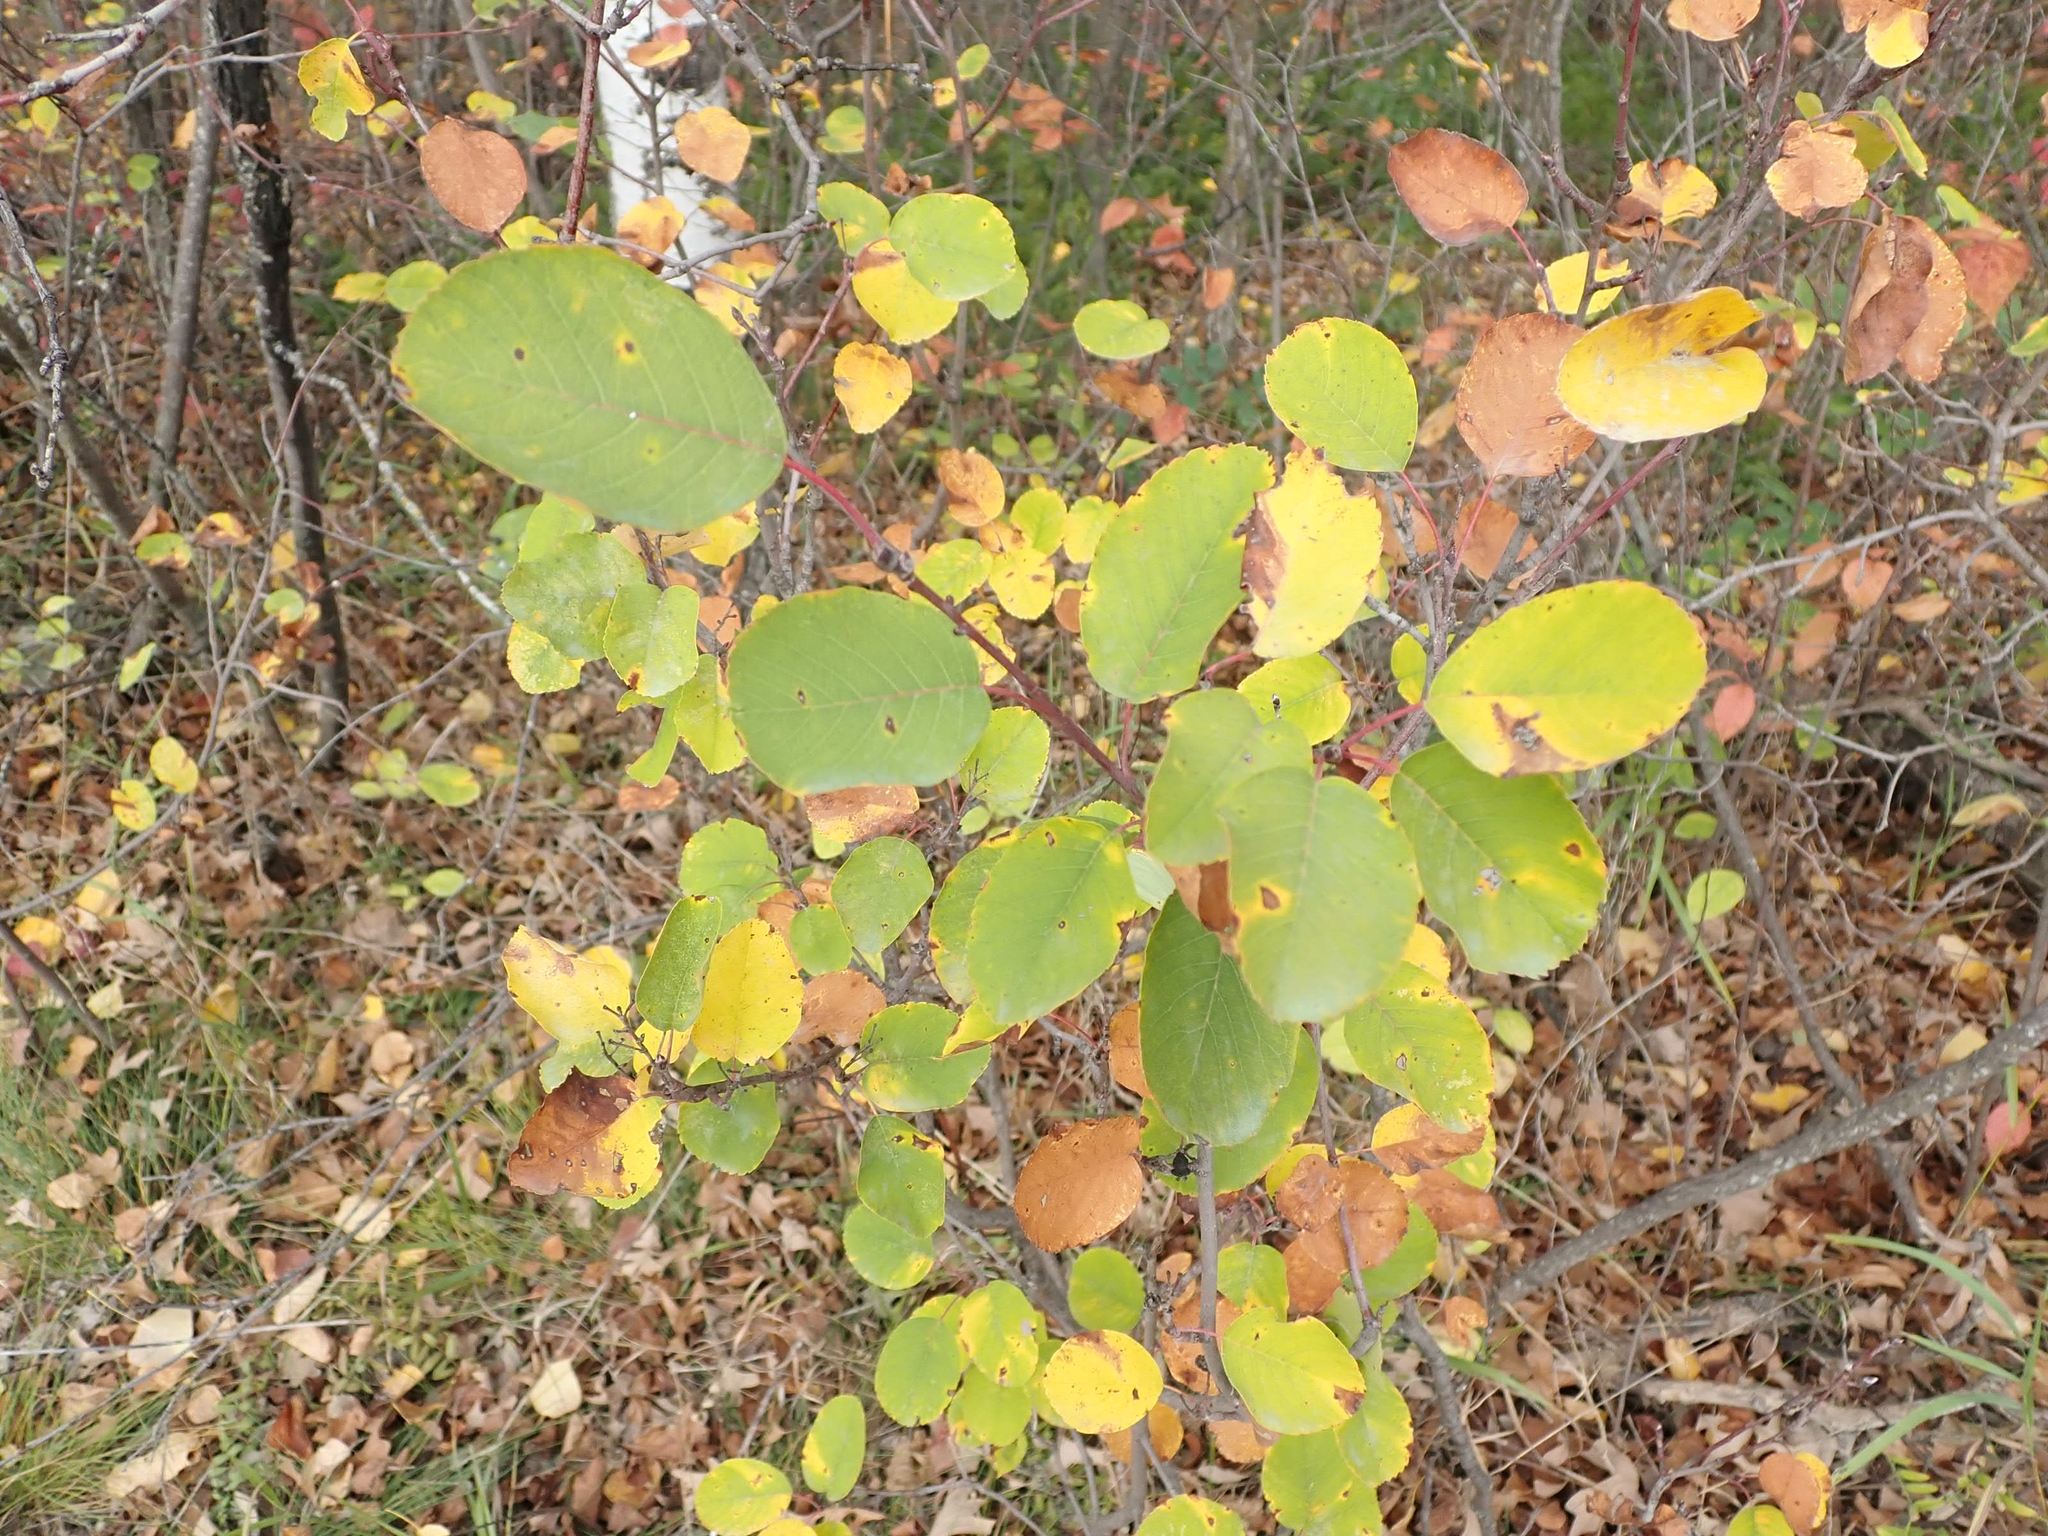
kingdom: Plantae
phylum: Tracheophyta
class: Magnoliopsida
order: Rosales
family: Rosaceae
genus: Amelanchier
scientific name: Amelanchier alnifolia
